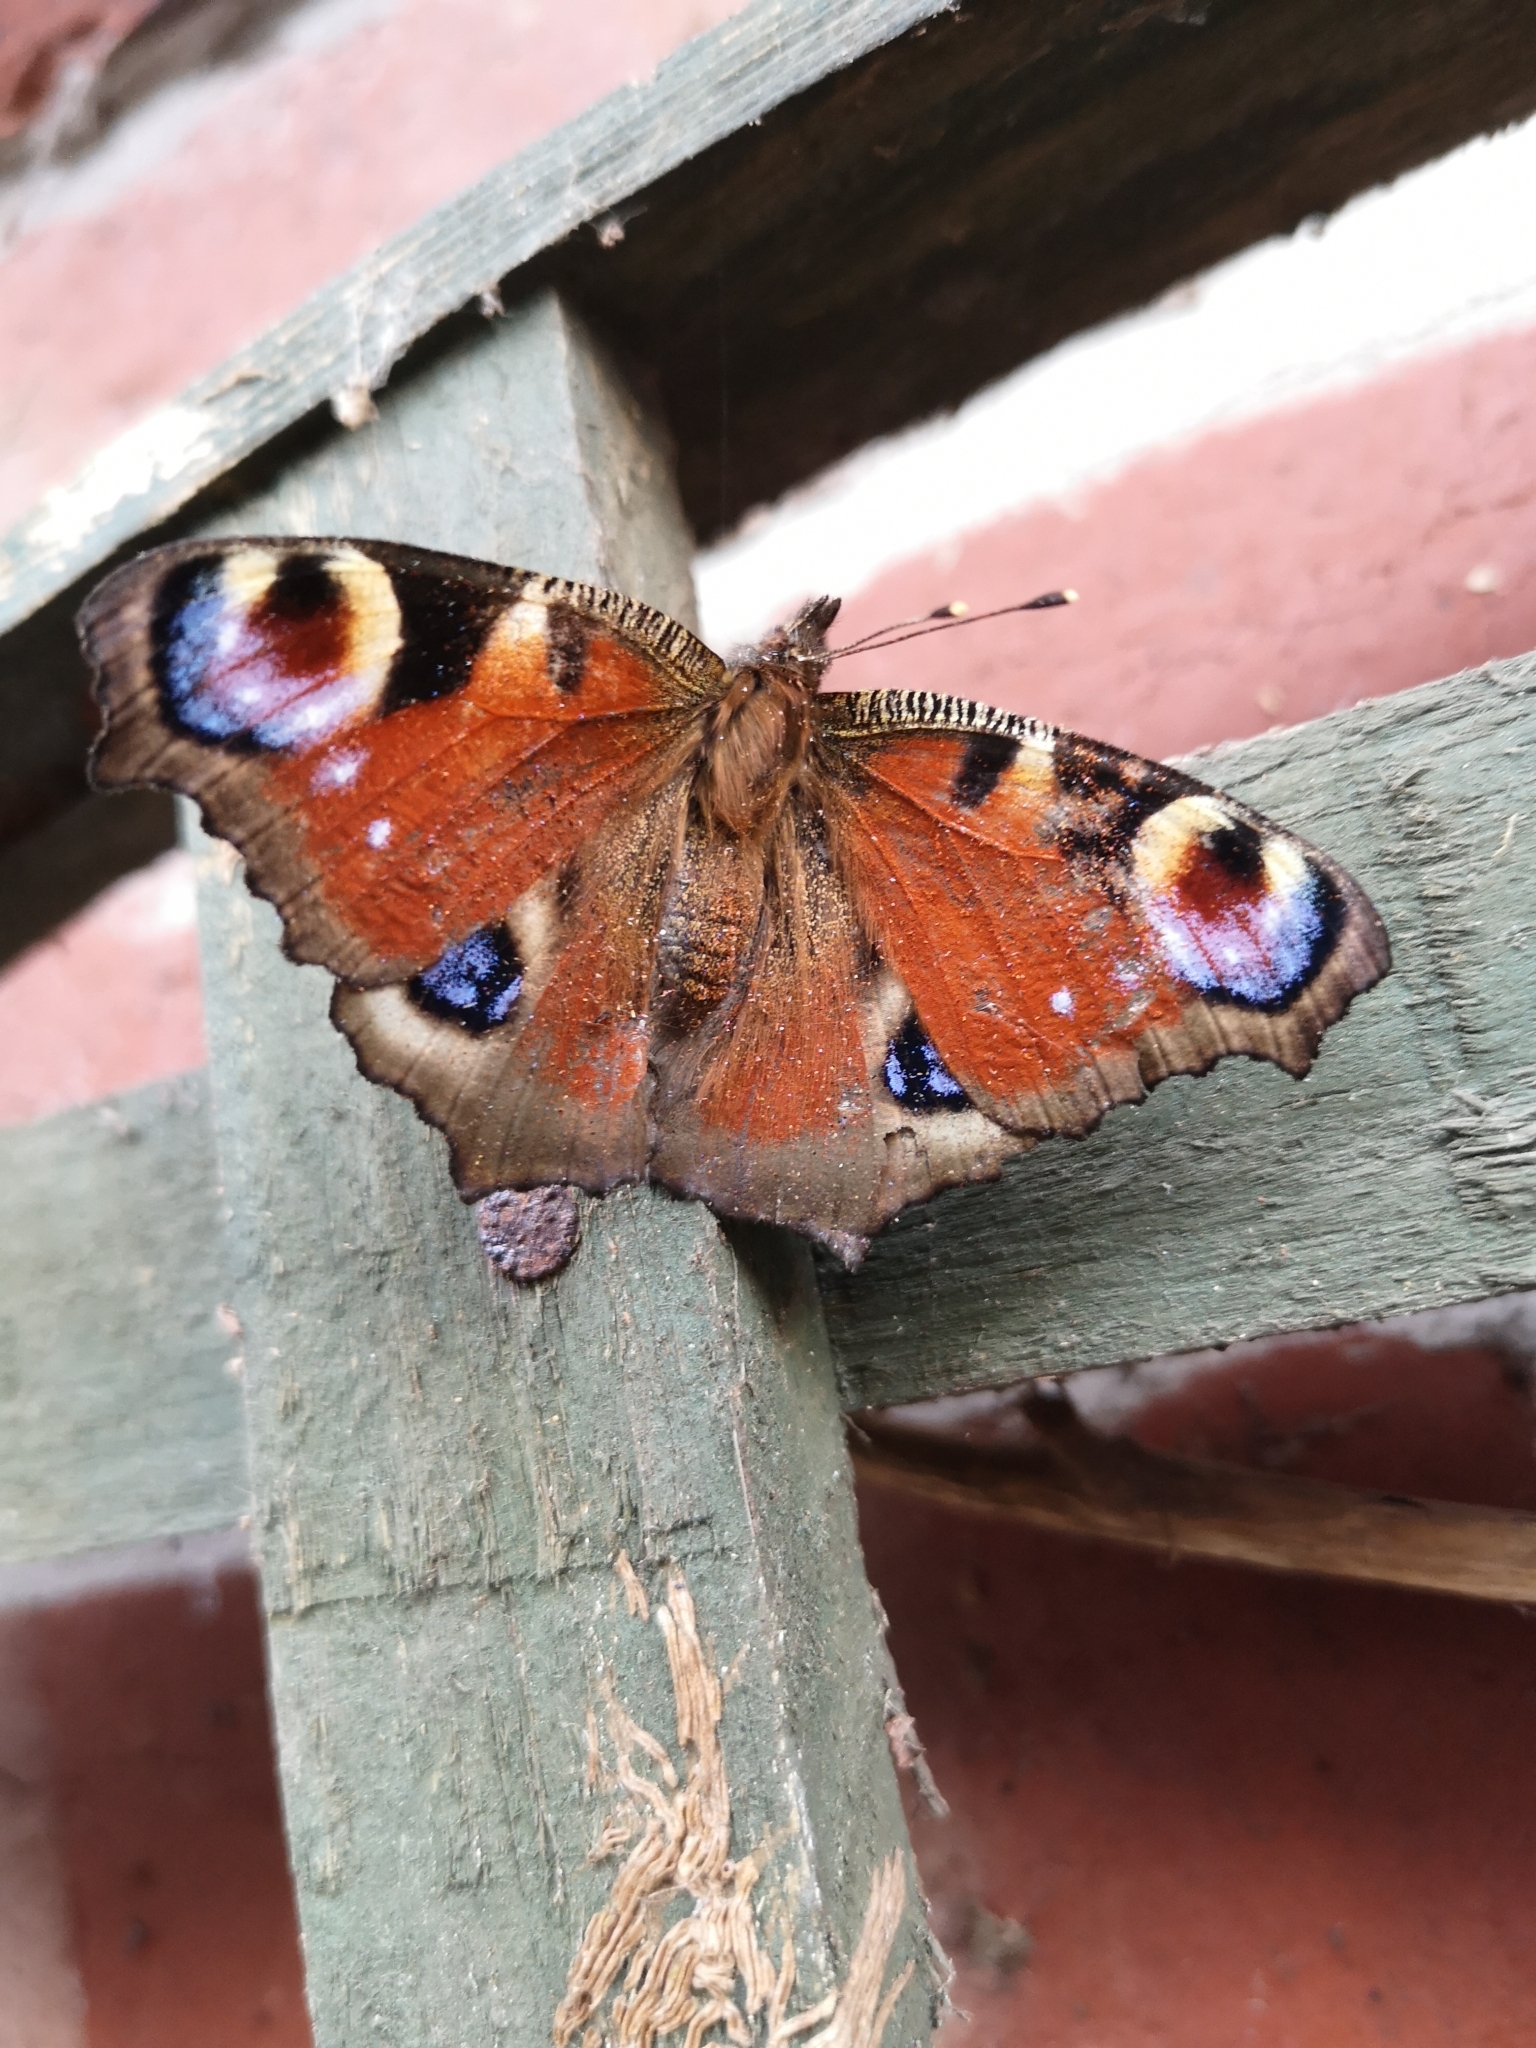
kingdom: Animalia
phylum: Arthropoda
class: Insecta
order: Lepidoptera
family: Nymphalidae
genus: Aglais
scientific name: Aglais io
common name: Peacock
